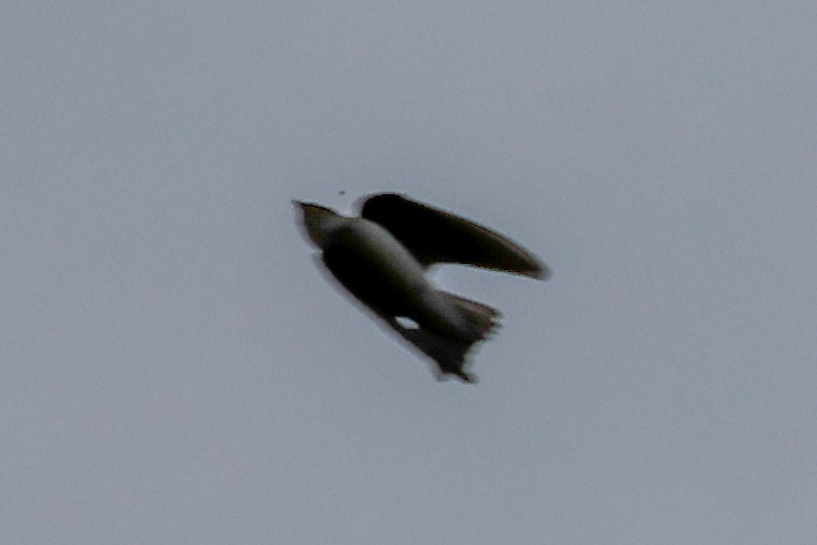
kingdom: Animalia
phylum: Chordata
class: Aves
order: Passeriformes
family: Hirundinidae
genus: Tachycineta
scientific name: Tachycineta bicolor
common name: Tree swallow
